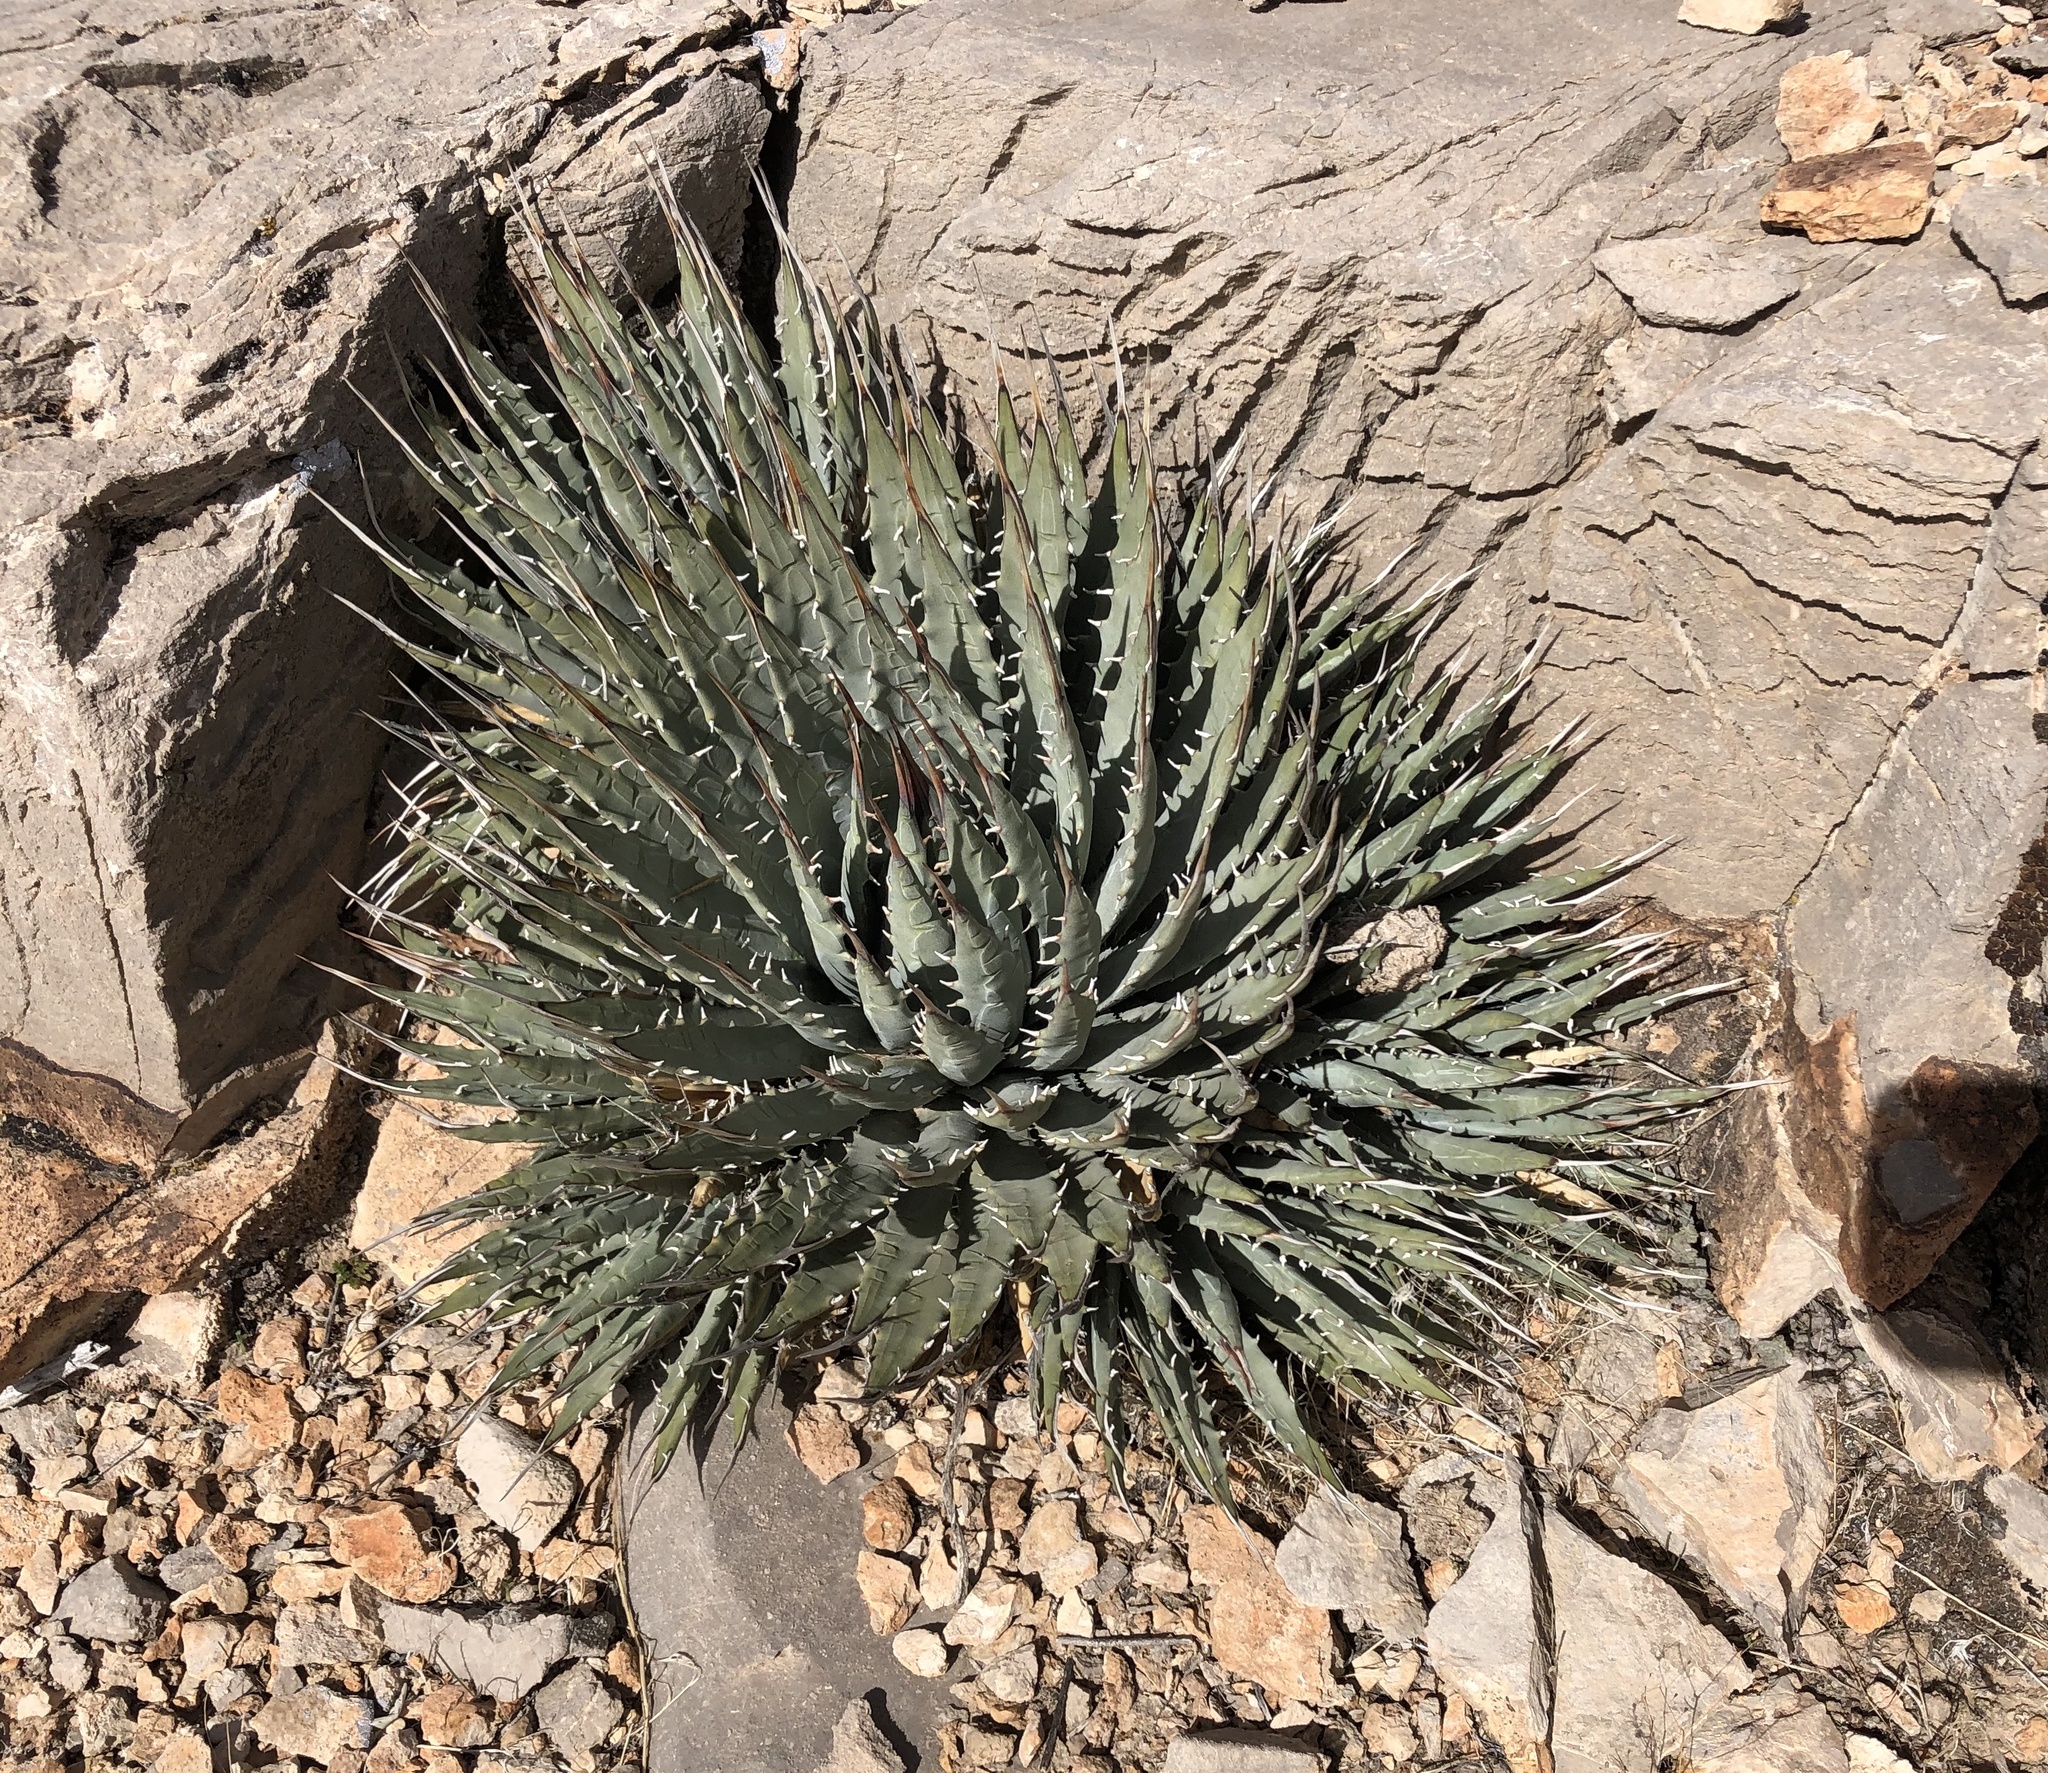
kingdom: Plantae
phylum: Tracheophyta
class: Liliopsida
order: Asparagales
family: Asparagaceae
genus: Agave
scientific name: Agave utahensis
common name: Utah agave
